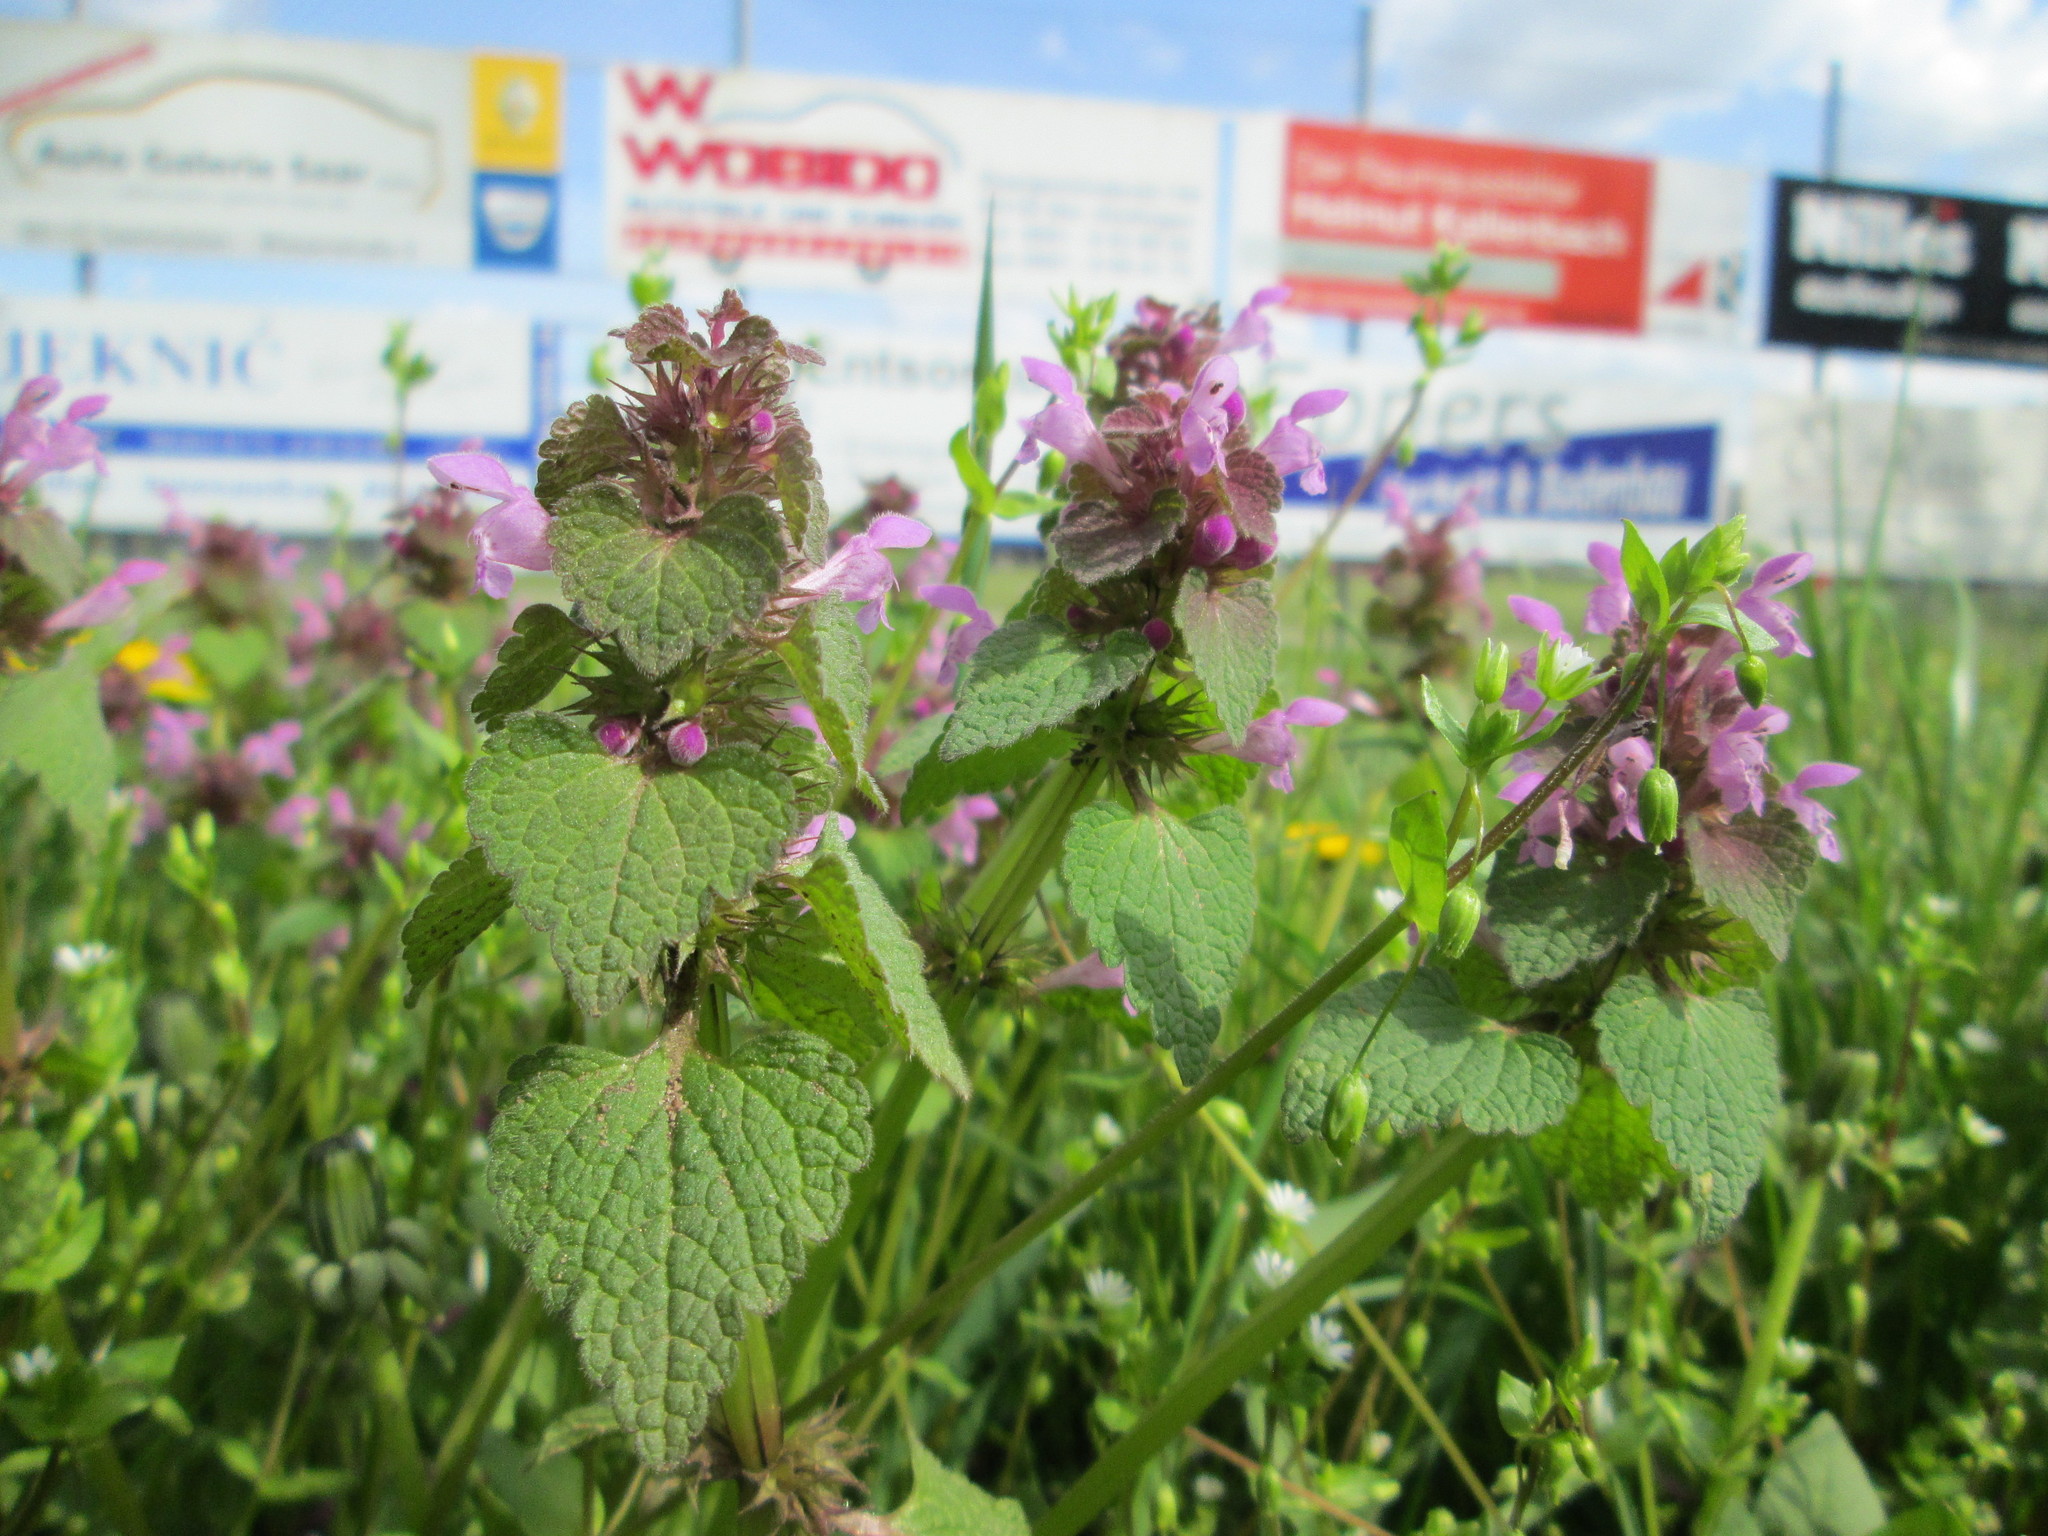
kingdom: Plantae
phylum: Tracheophyta
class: Magnoliopsida
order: Lamiales
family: Lamiaceae
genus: Lamium
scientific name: Lamium purpureum
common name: Red dead-nettle
